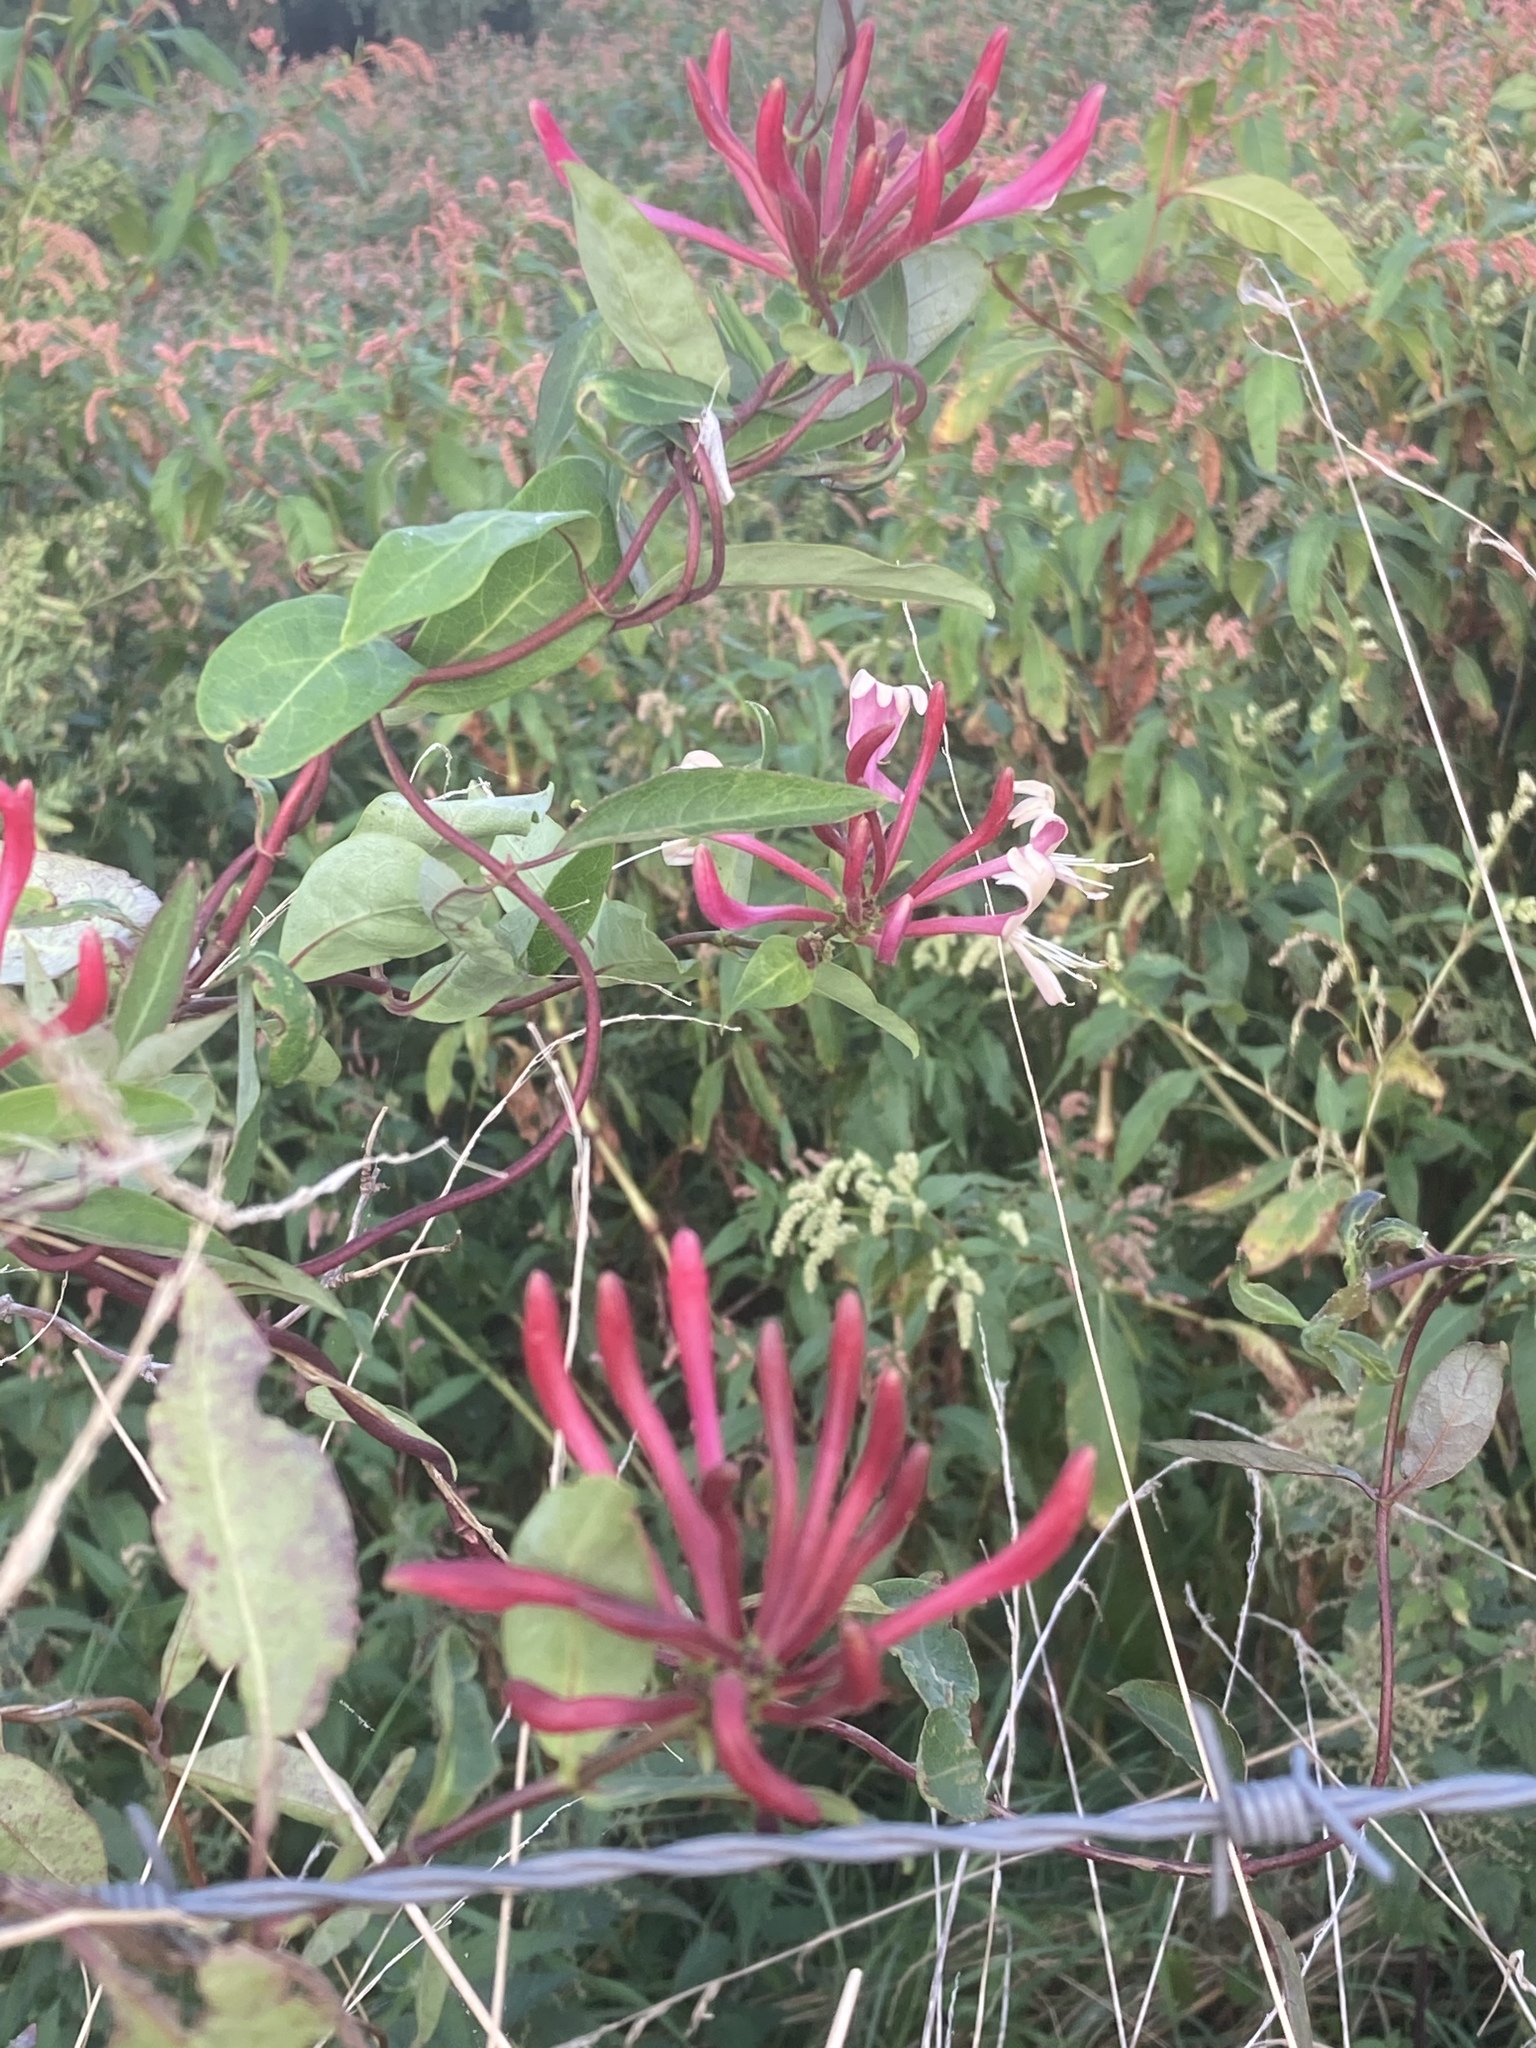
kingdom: Plantae
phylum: Tracheophyta
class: Magnoliopsida
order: Dipsacales
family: Caprifoliaceae
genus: Lonicera
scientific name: Lonicera periclymenum
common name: European honeysuckle
